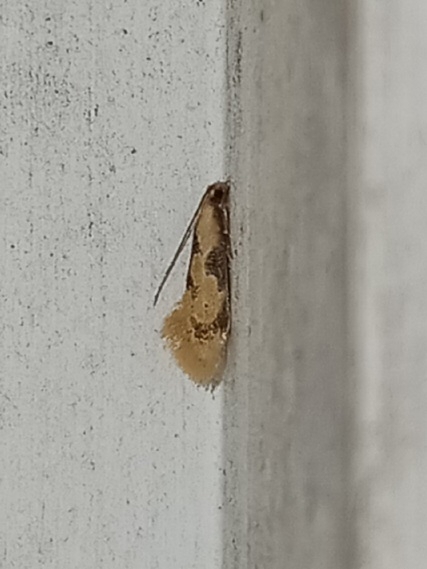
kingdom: Animalia
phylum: Arthropoda
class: Insecta
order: Lepidoptera
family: Meessiidae
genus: Hybroma
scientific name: Hybroma servulella
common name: Yellow wave moth
